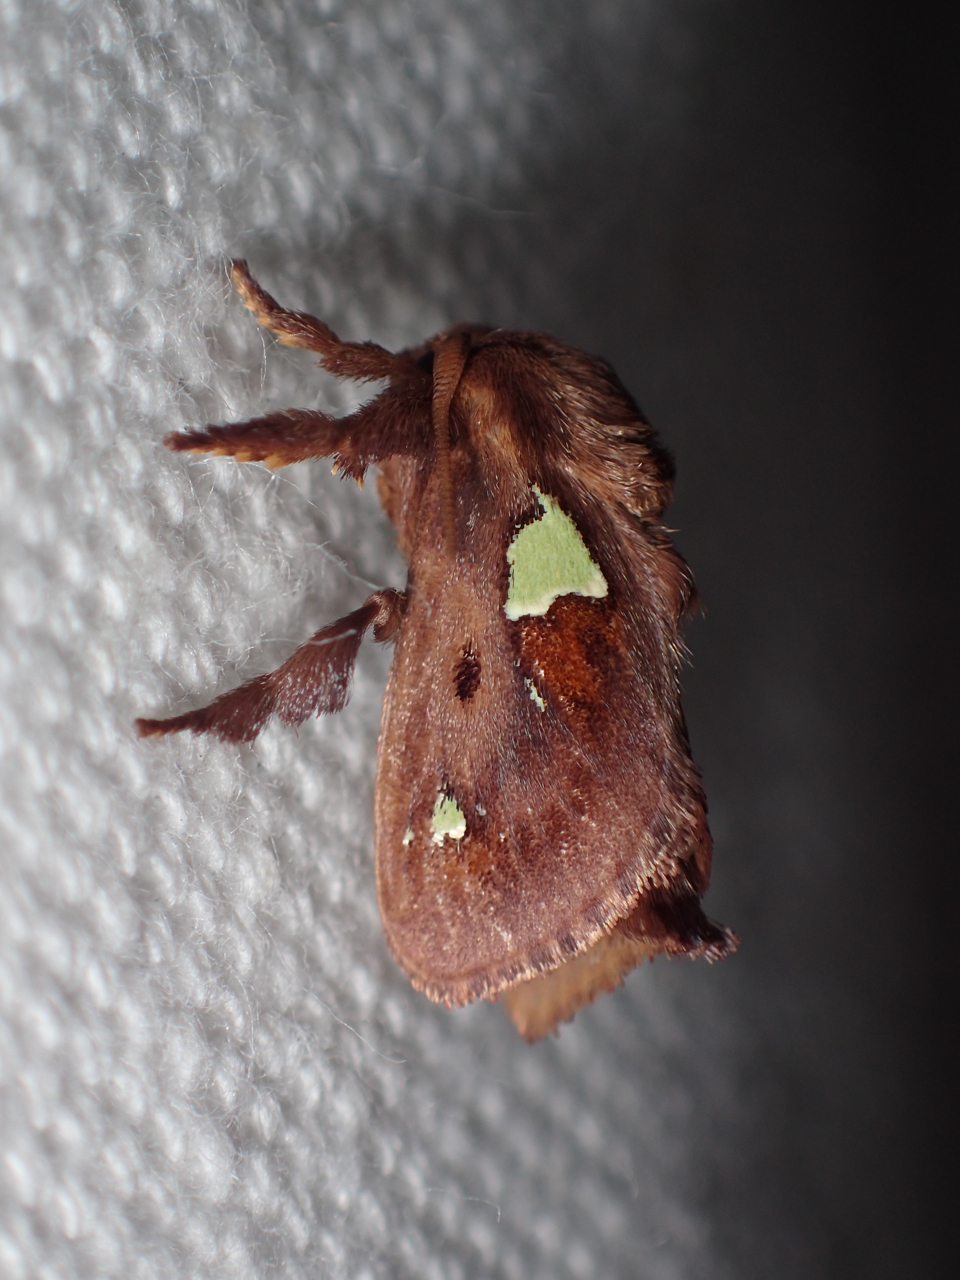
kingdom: Animalia
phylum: Arthropoda
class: Insecta
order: Lepidoptera
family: Limacodidae
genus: Euclea
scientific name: Euclea delphinii
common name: Spiny oak-slug moth
